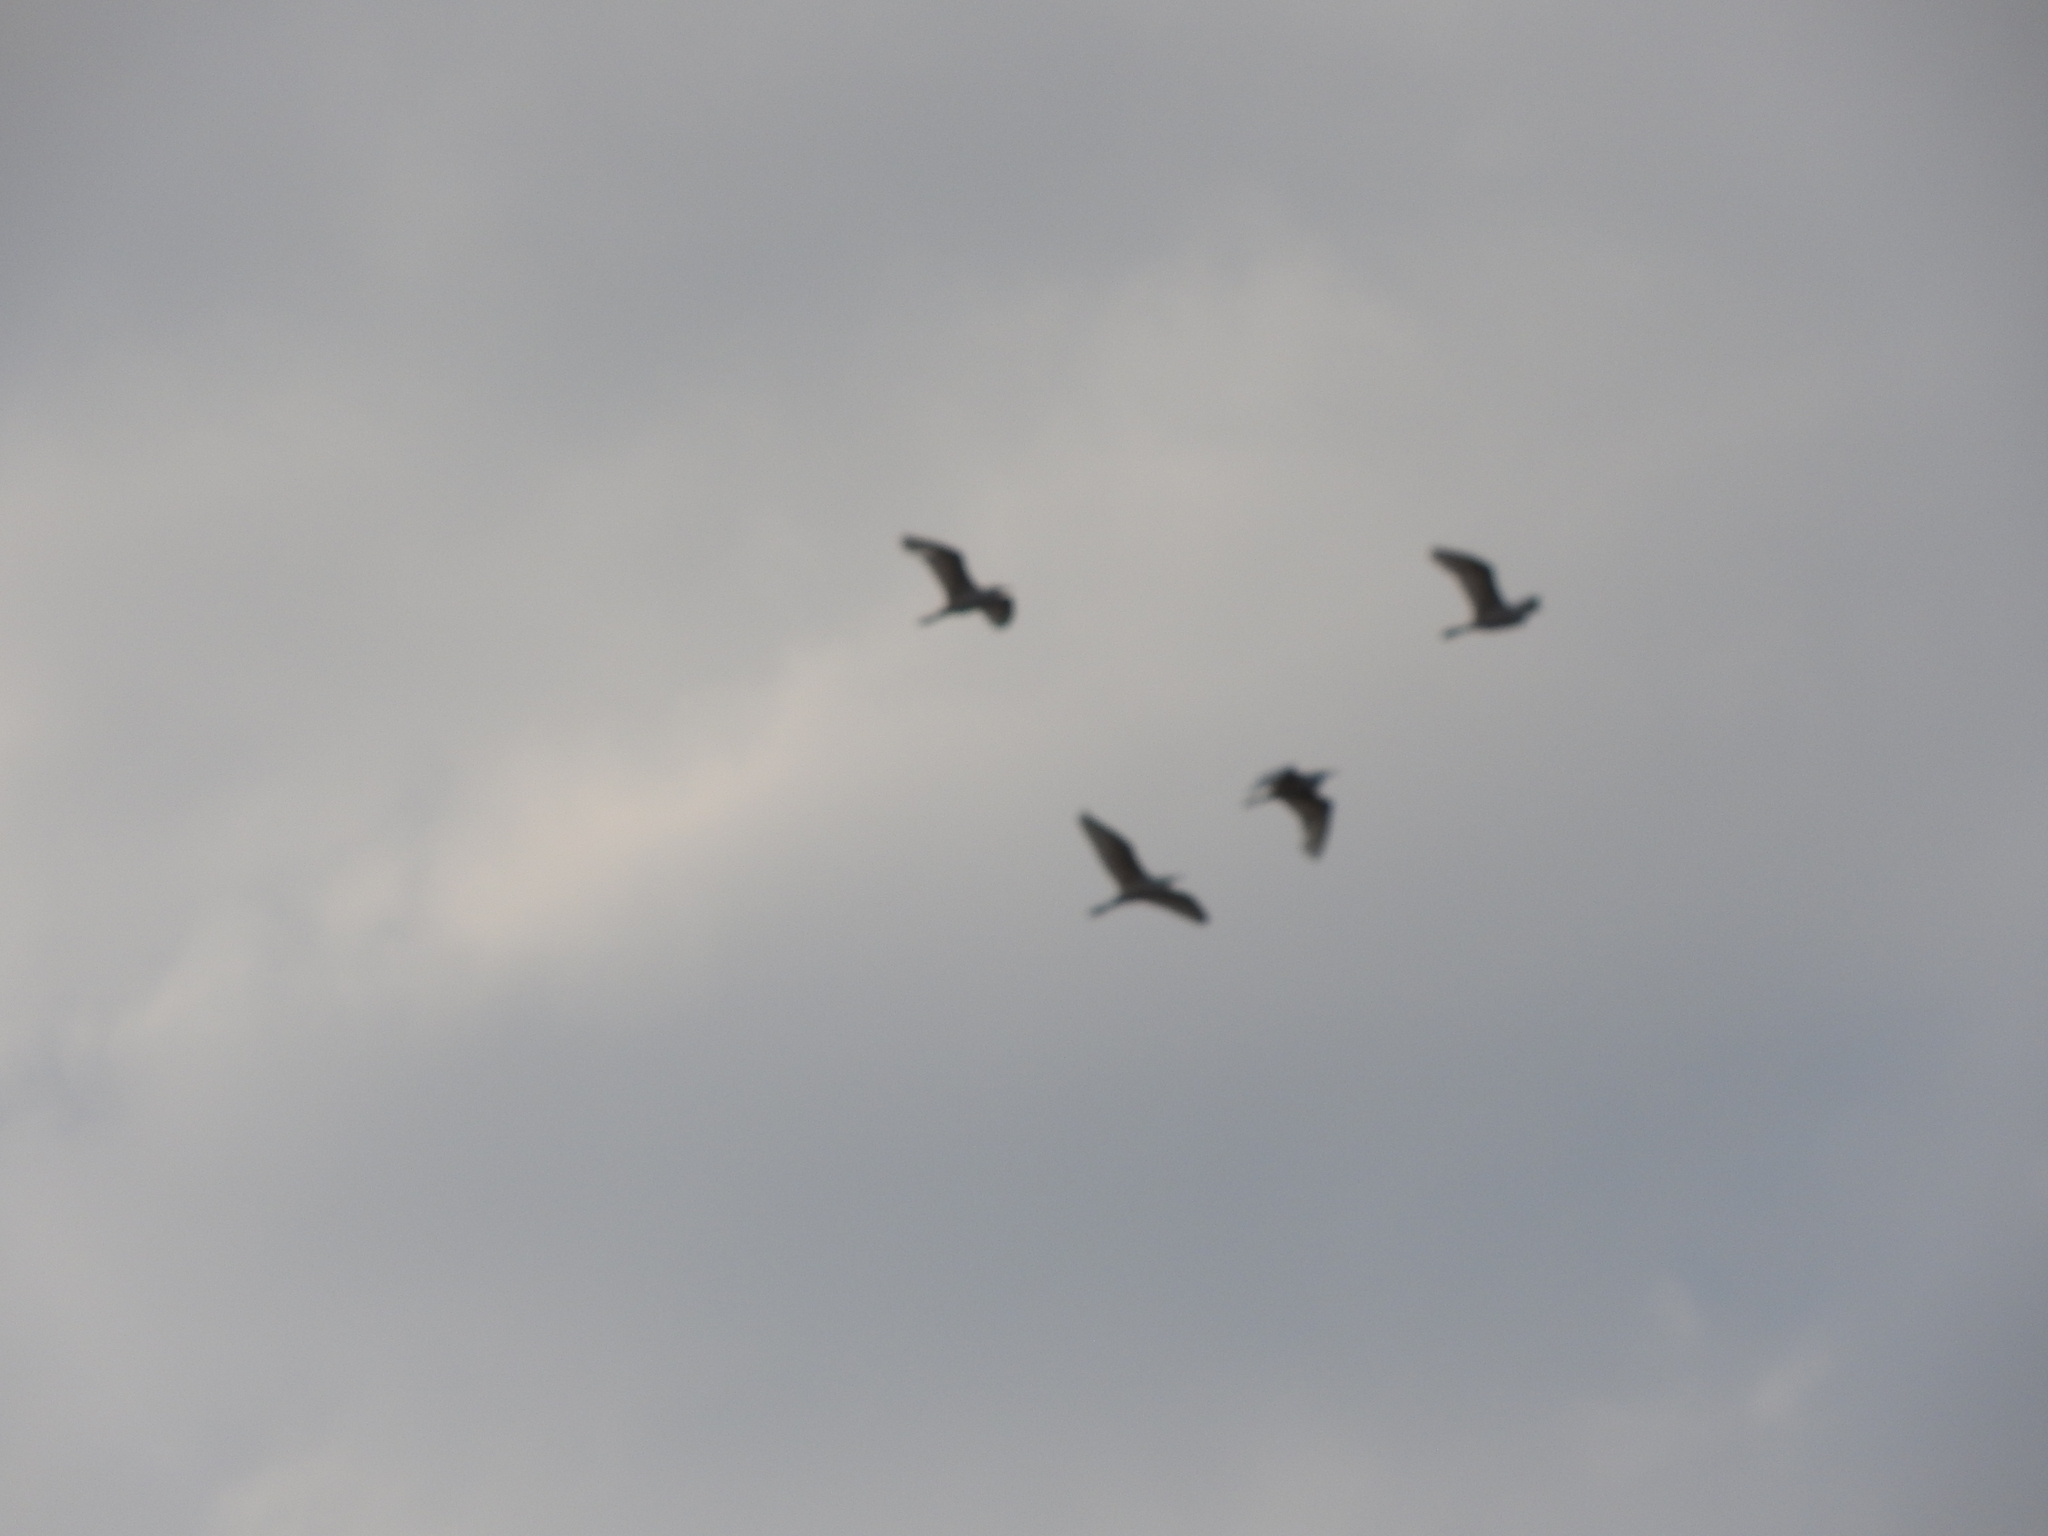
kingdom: Animalia
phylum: Chordata
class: Aves
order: Pelecaniformes
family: Ardeidae
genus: Bubulcus
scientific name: Bubulcus ibis
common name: Cattle egret
